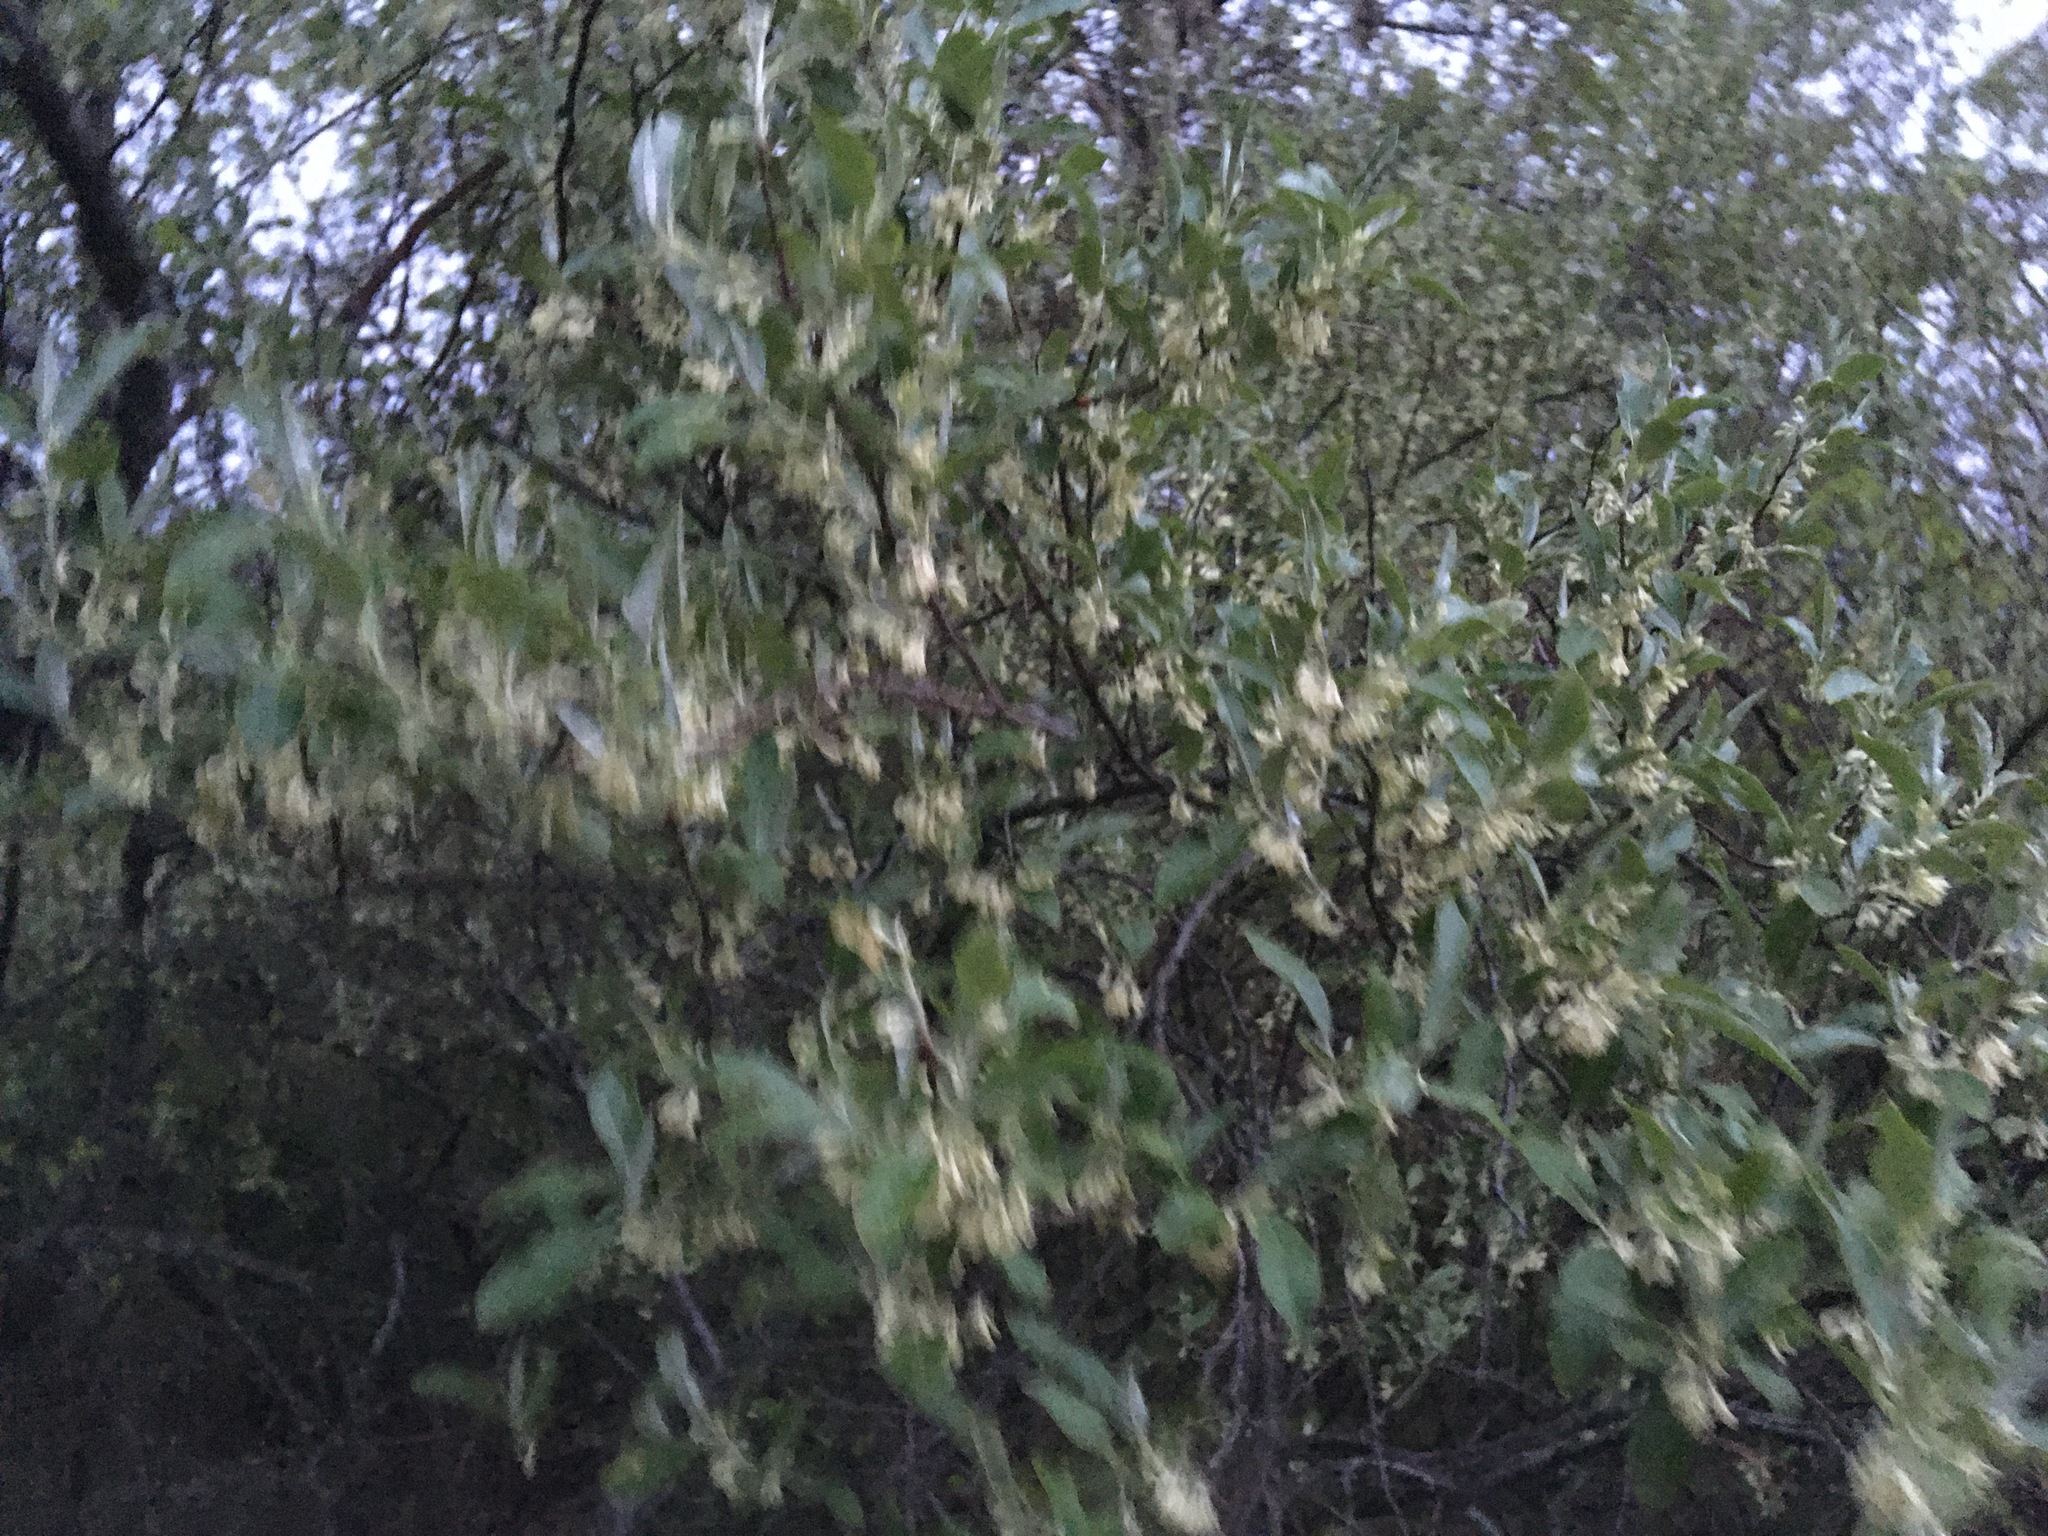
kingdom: Plantae
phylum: Tracheophyta
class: Magnoliopsida
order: Rosales
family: Elaeagnaceae
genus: Elaeagnus
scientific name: Elaeagnus umbellata
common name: Autumn olive
